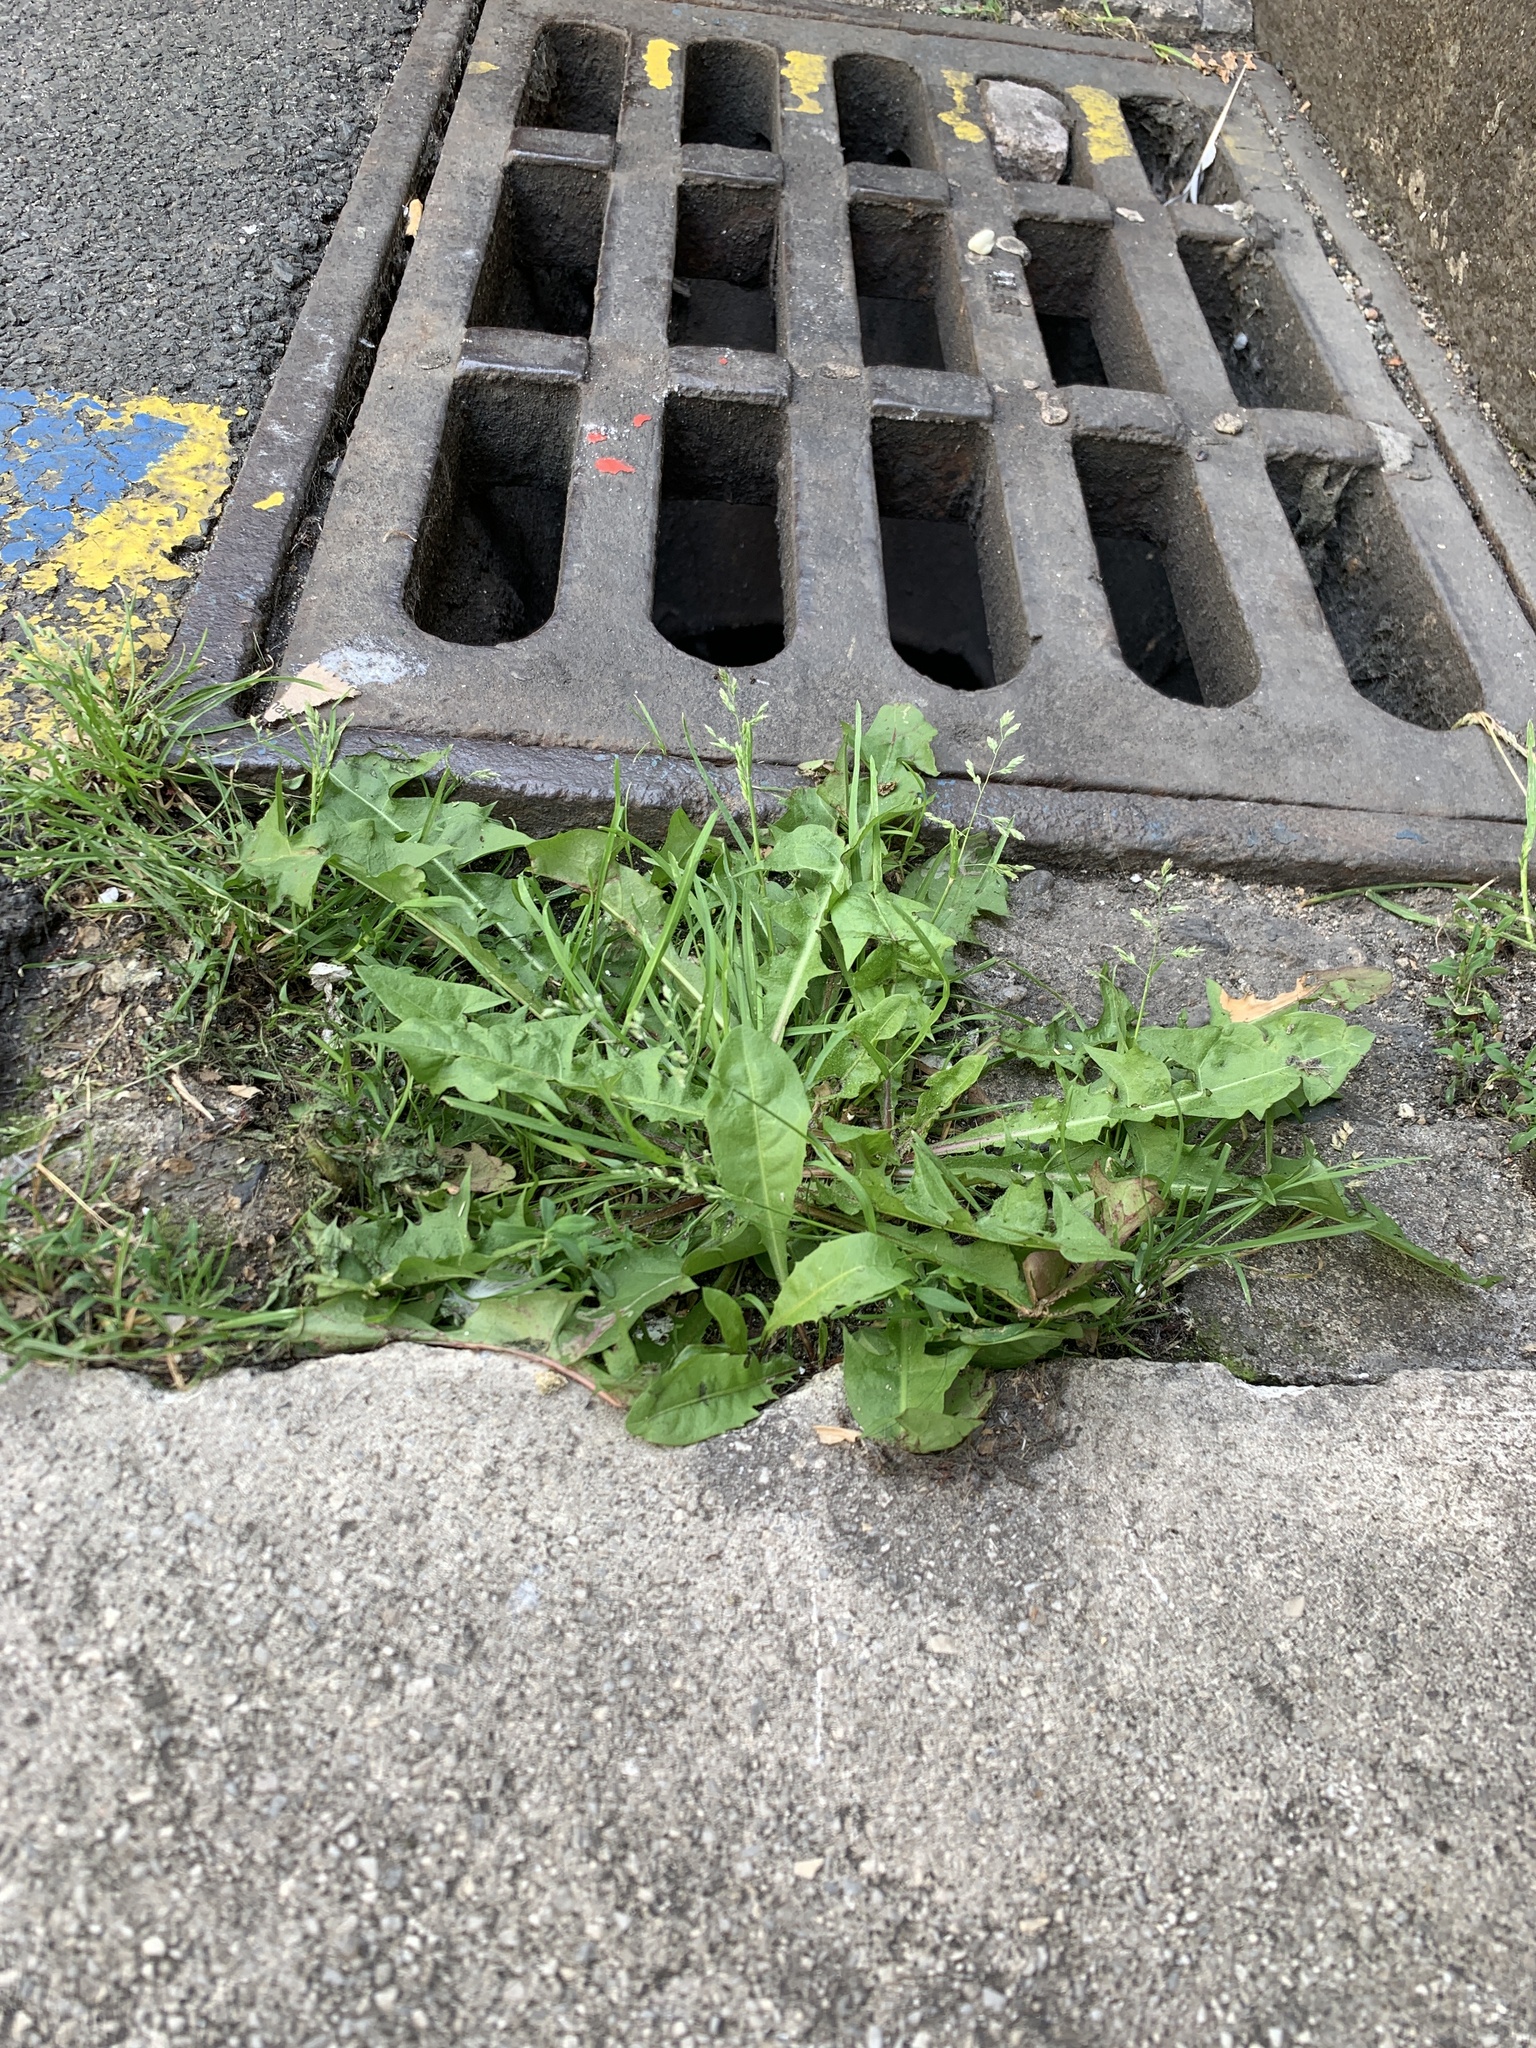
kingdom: Plantae
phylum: Tracheophyta
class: Liliopsida
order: Poales
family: Poaceae
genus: Poa
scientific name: Poa annua
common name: Annual bluegrass
